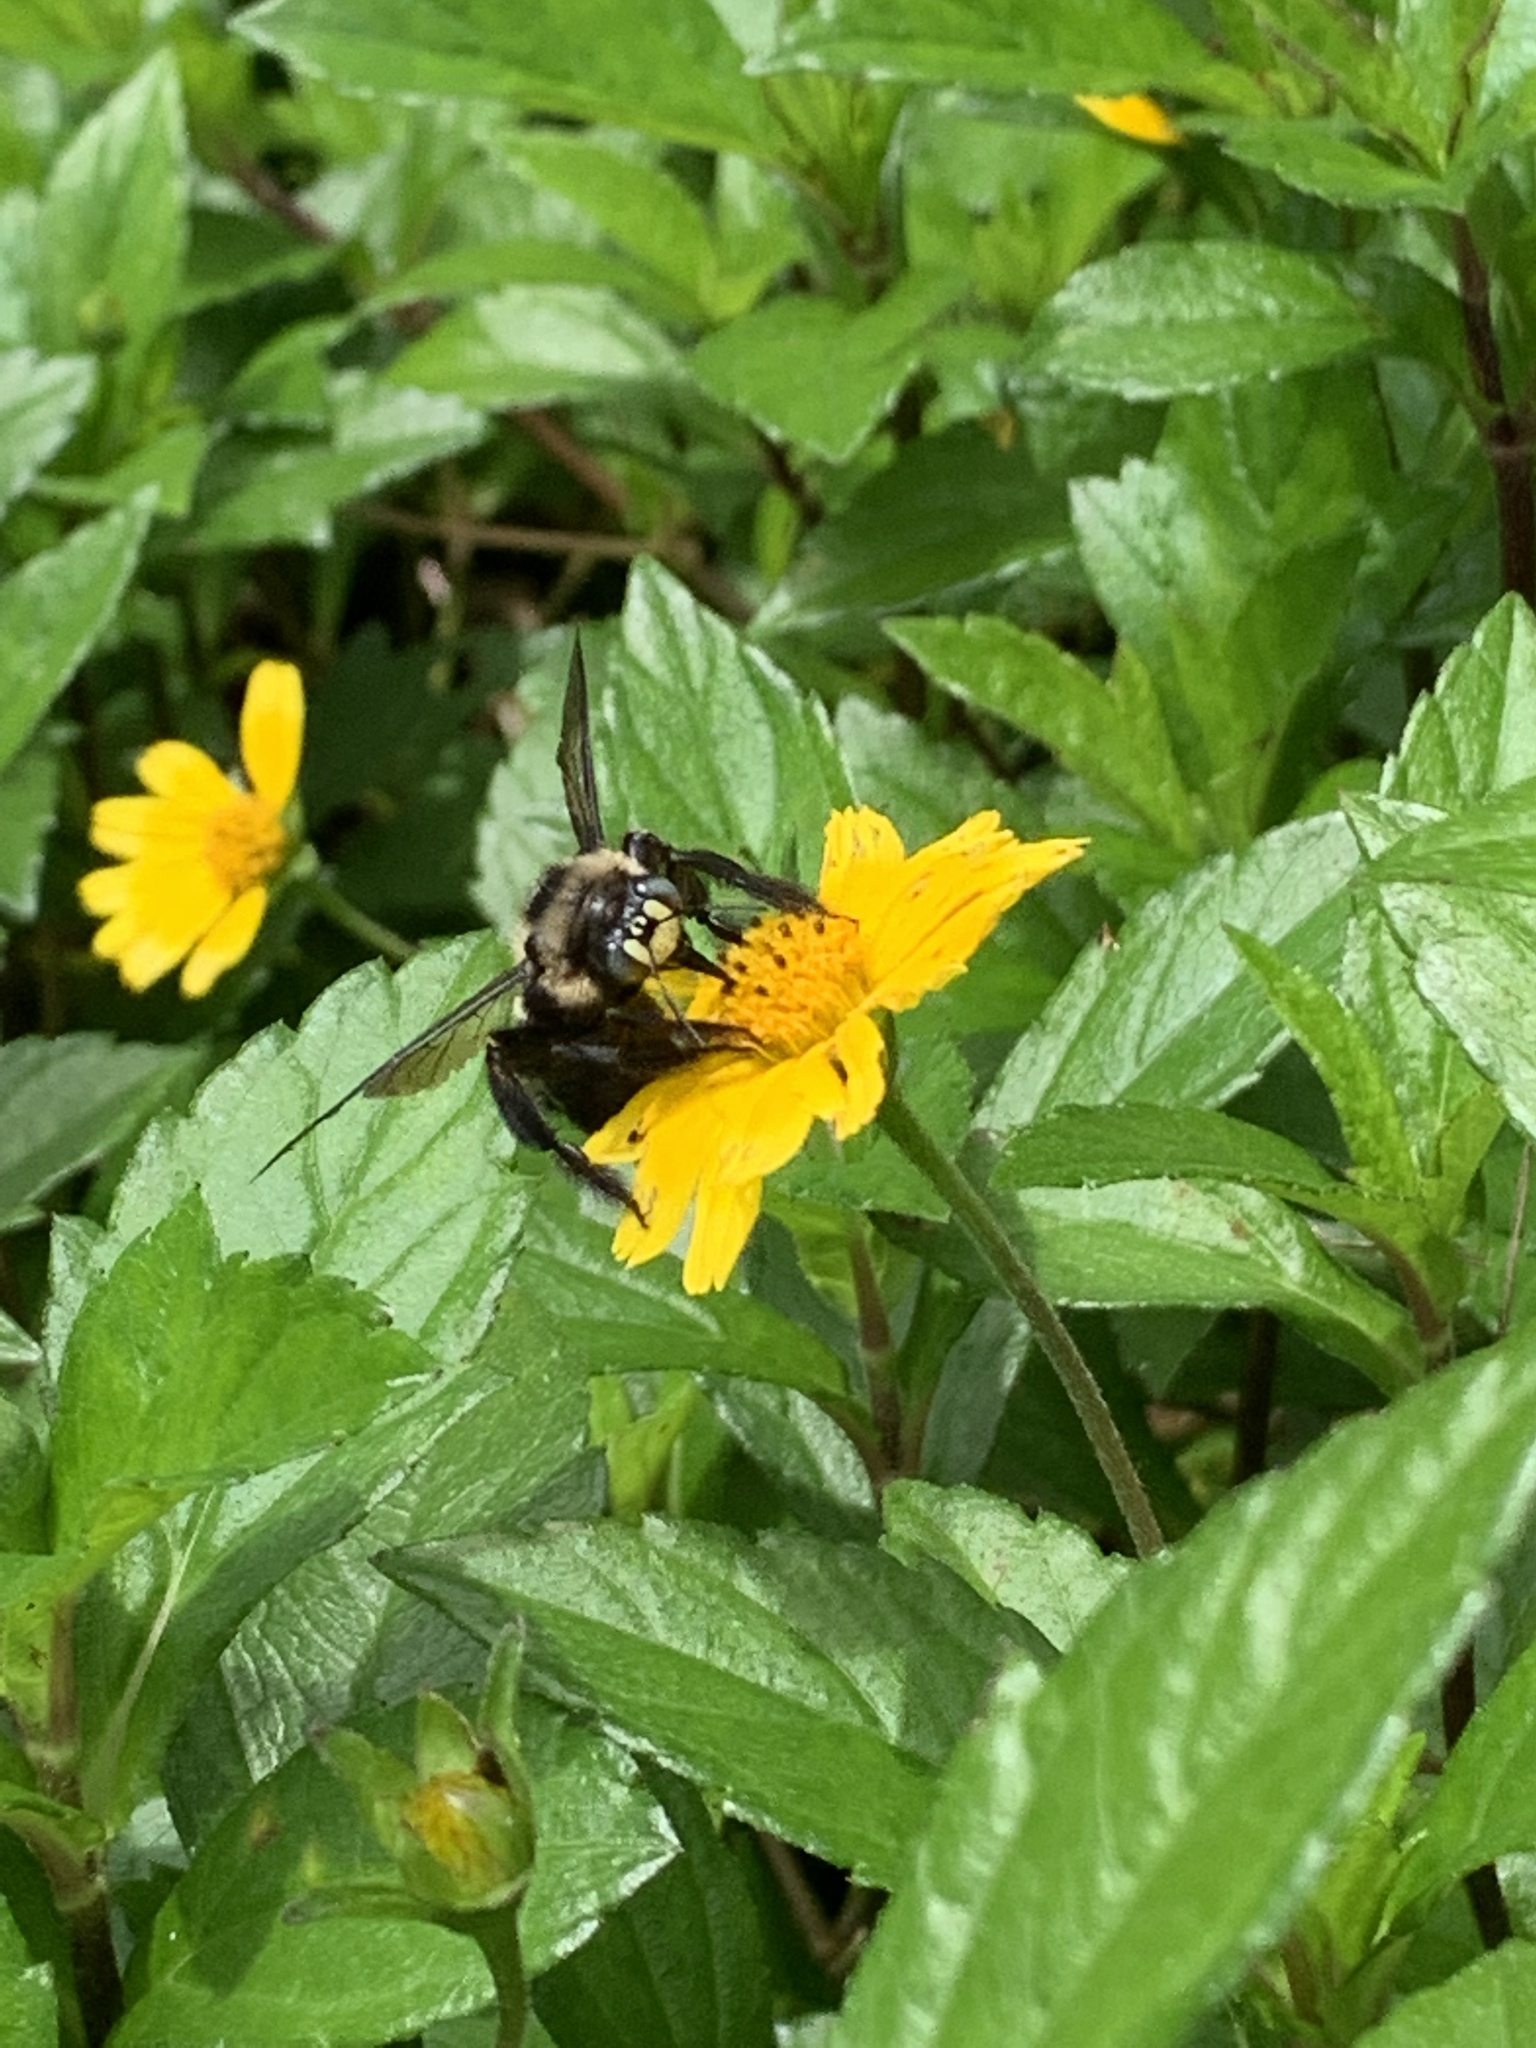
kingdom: Animalia
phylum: Arthropoda
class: Insecta
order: Hymenoptera
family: Apidae
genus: Xylocopa
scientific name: Xylocopa tranquebarorum
